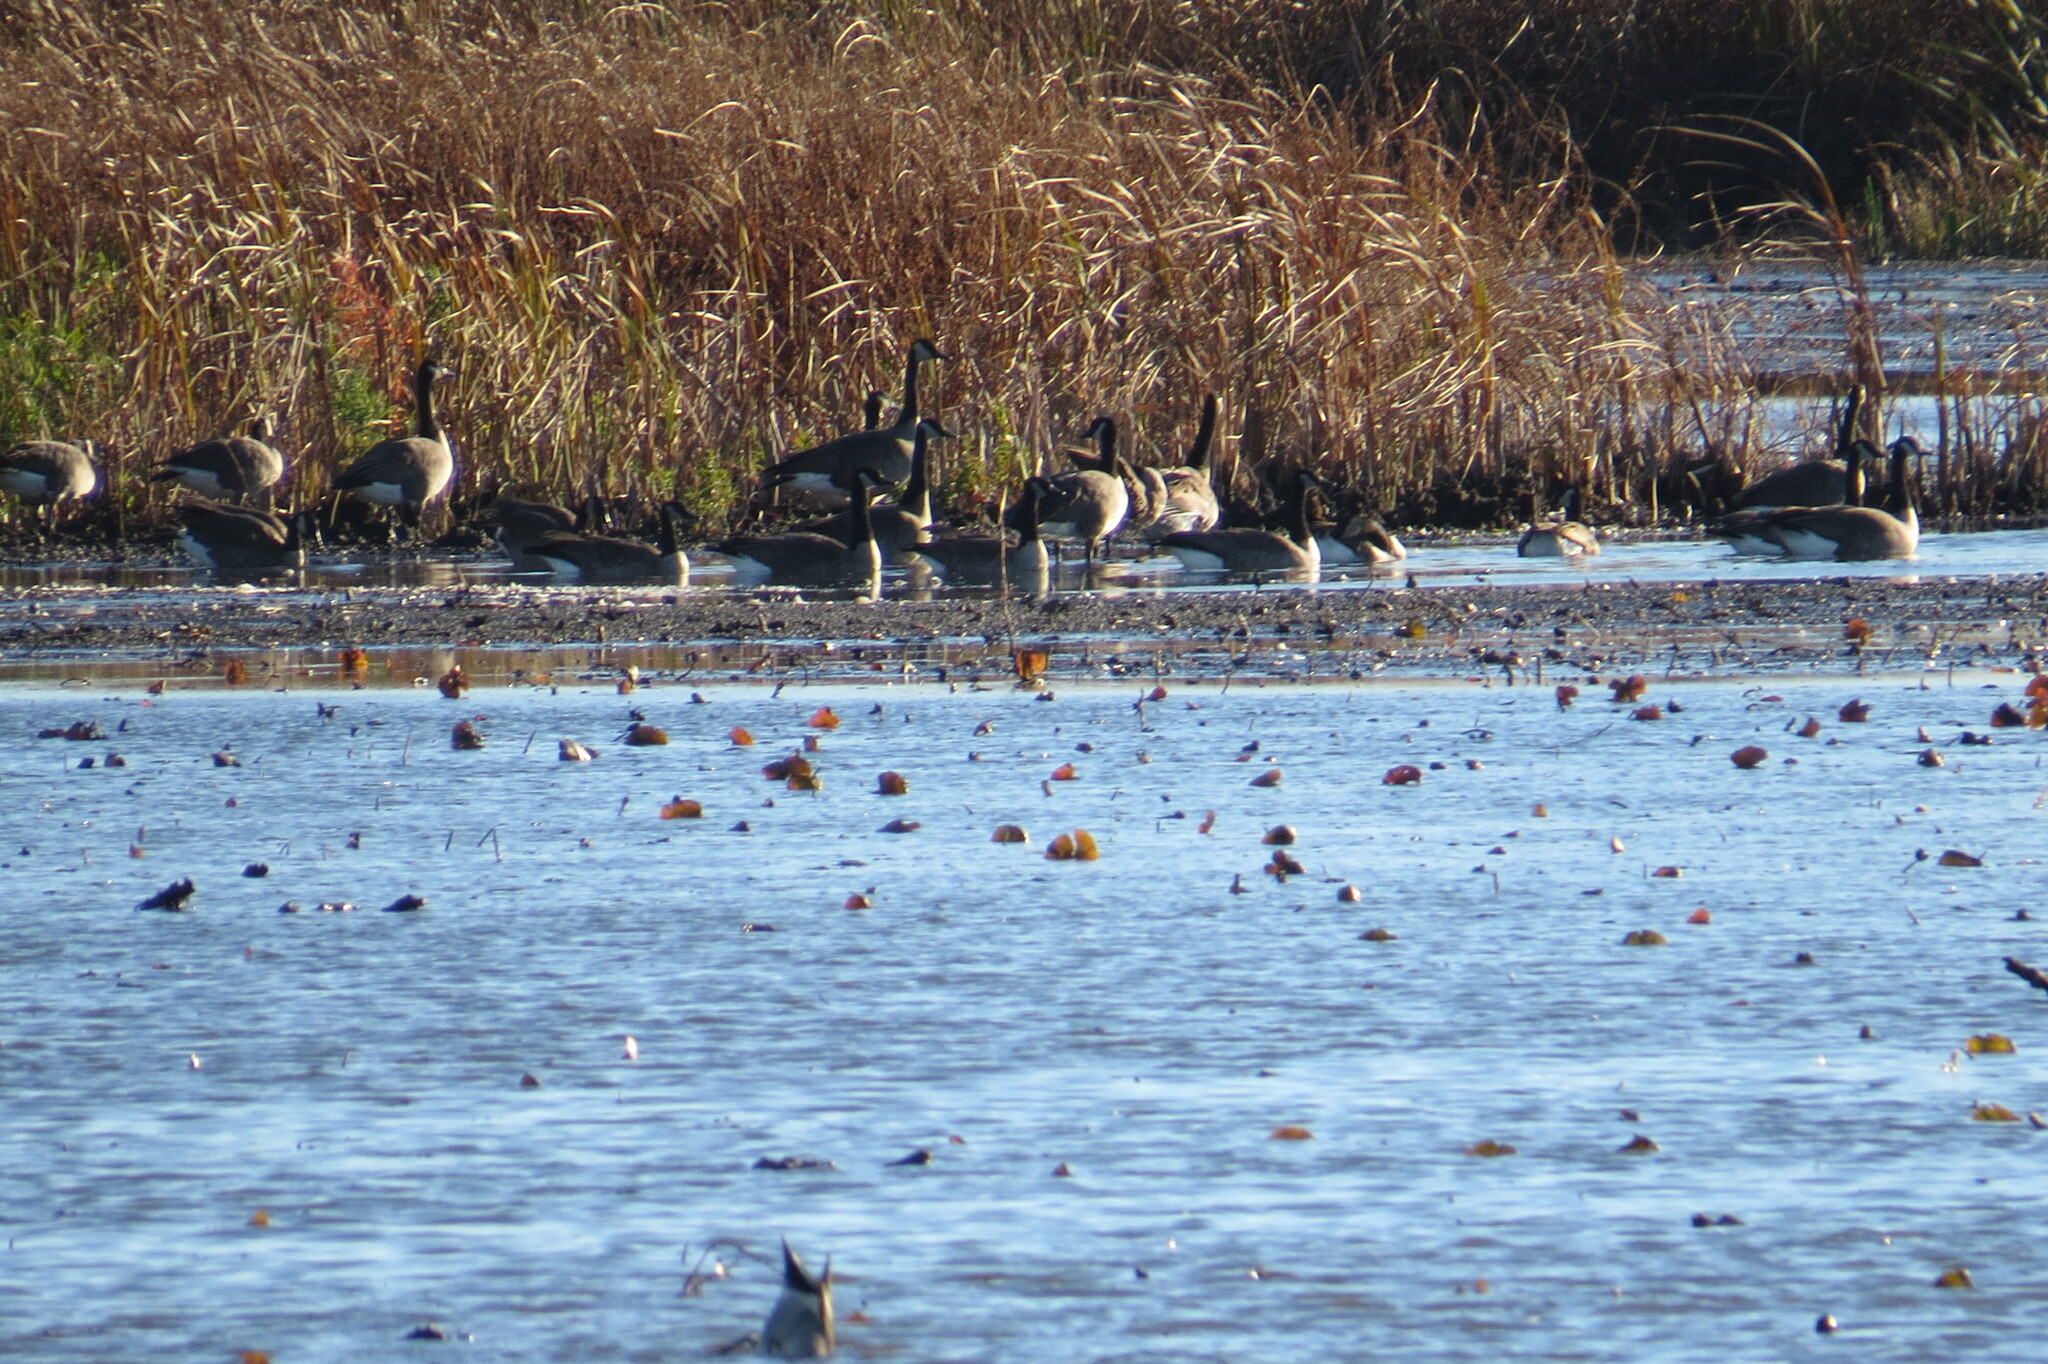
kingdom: Animalia
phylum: Chordata
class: Aves
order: Anseriformes
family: Anatidae
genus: Branta
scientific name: Branta canadensis
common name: Canada goose
